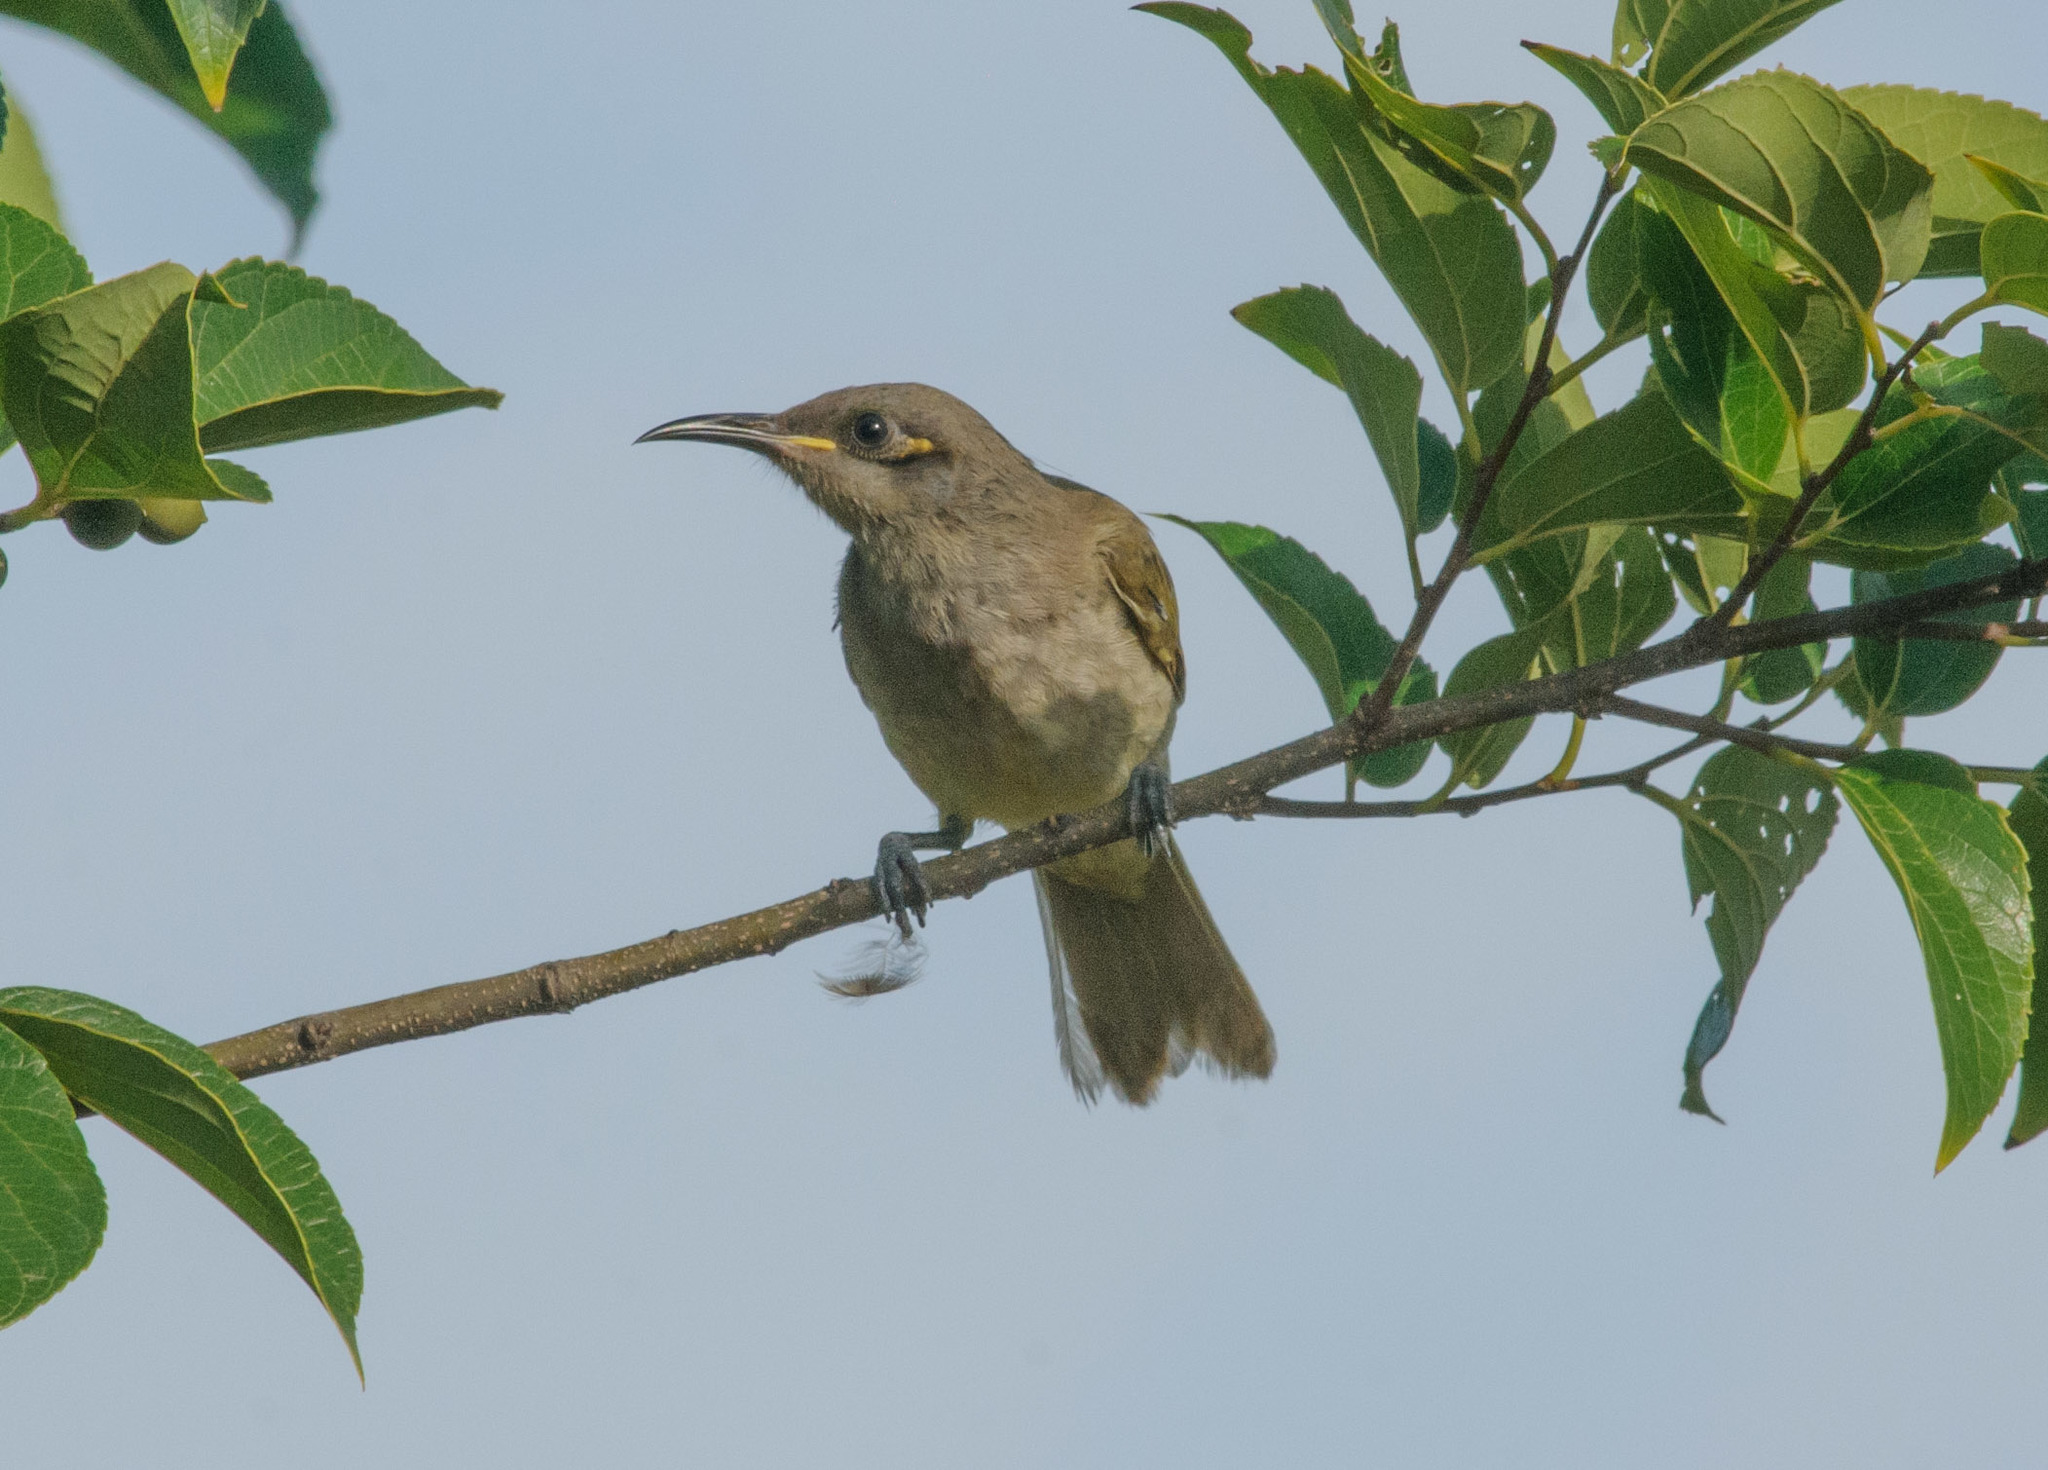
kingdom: Animalia
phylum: Chordata
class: Aves
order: Passeriformes
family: Meliphagidae
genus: Lichmera
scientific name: Lichmera indistincta
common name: Brown honeyeater
